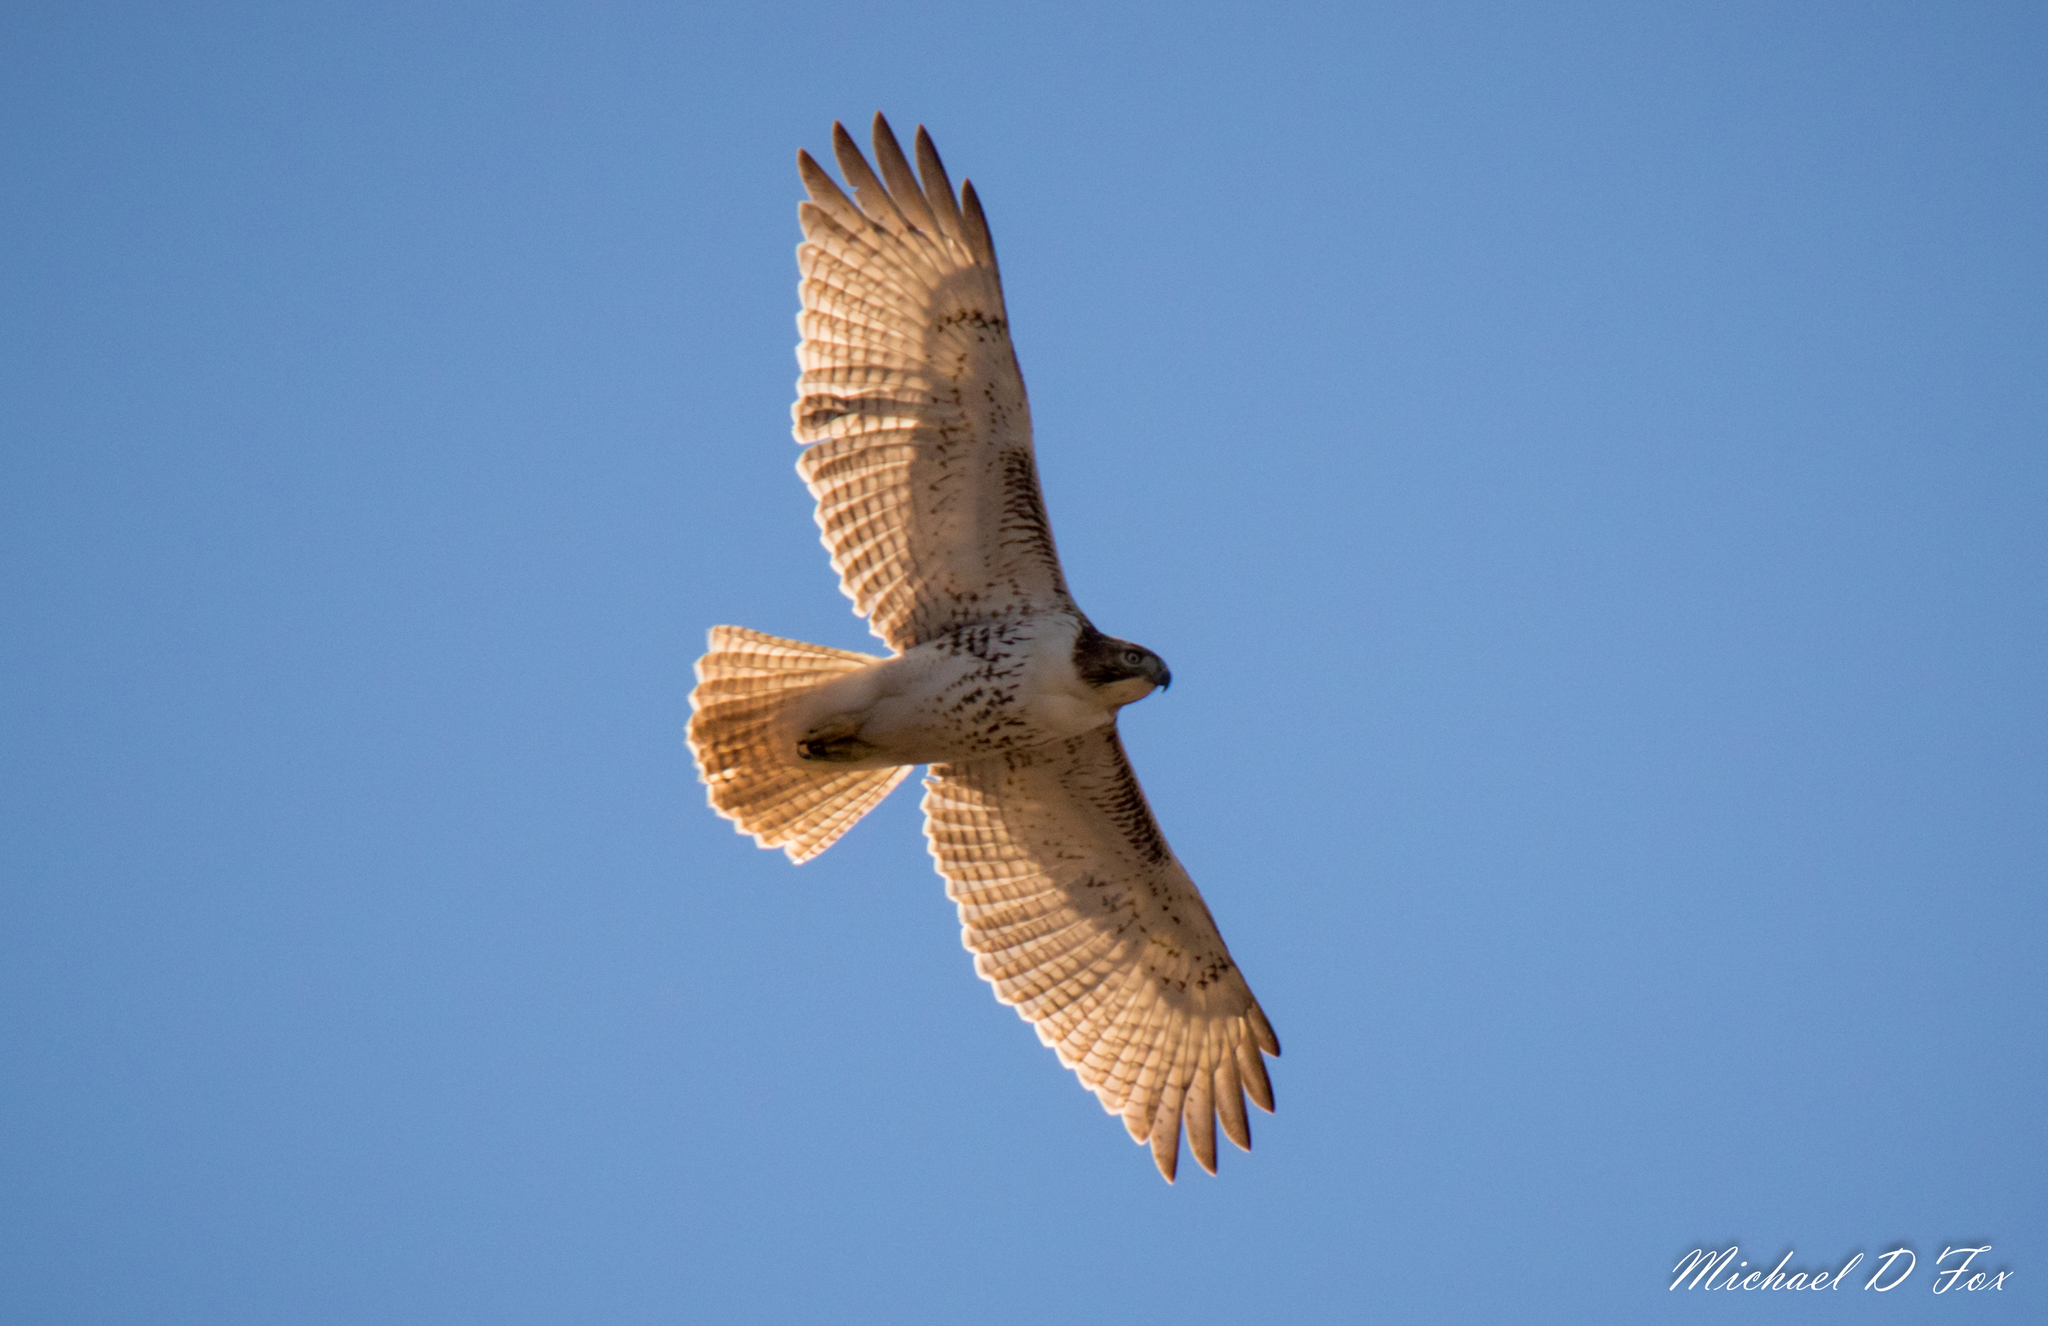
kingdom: Animalia
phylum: Chordata
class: Aves
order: Accipitriformes
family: Accipitridae
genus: Buteo
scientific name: Buteo jamaicensis
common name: Red-tailed hawk
